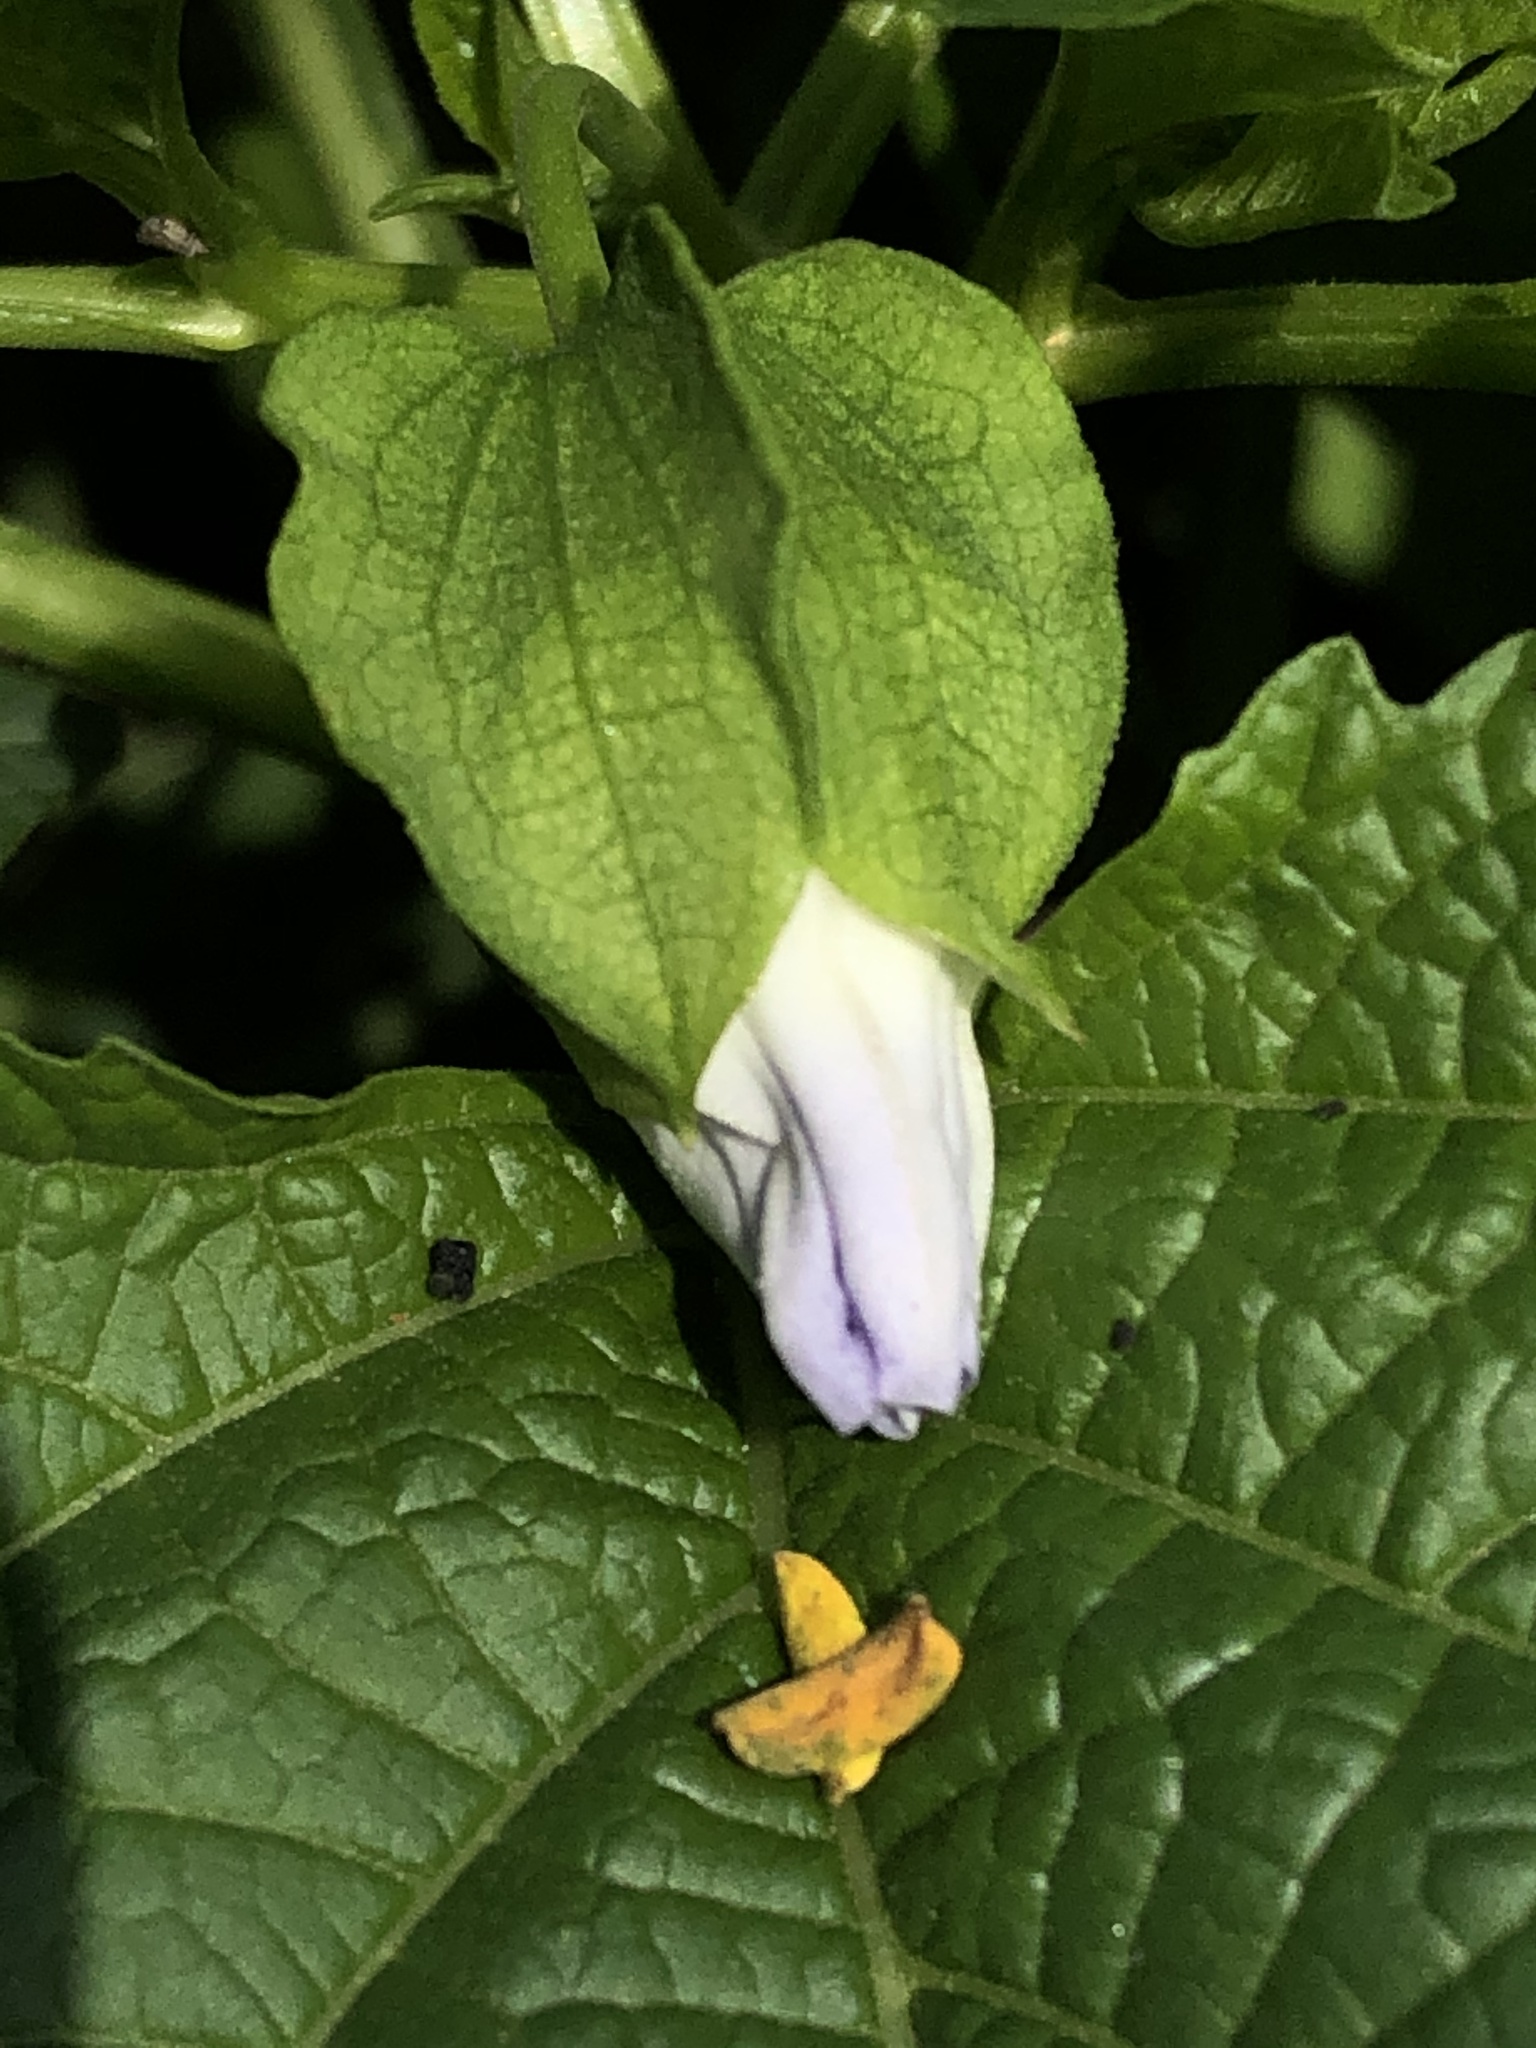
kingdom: Plantae
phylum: Tracheophyta
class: Magnoliopsida
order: Solanales
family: Solanaceae
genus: Nicandra
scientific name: Nicandra physalodes
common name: Apple-of-peru
